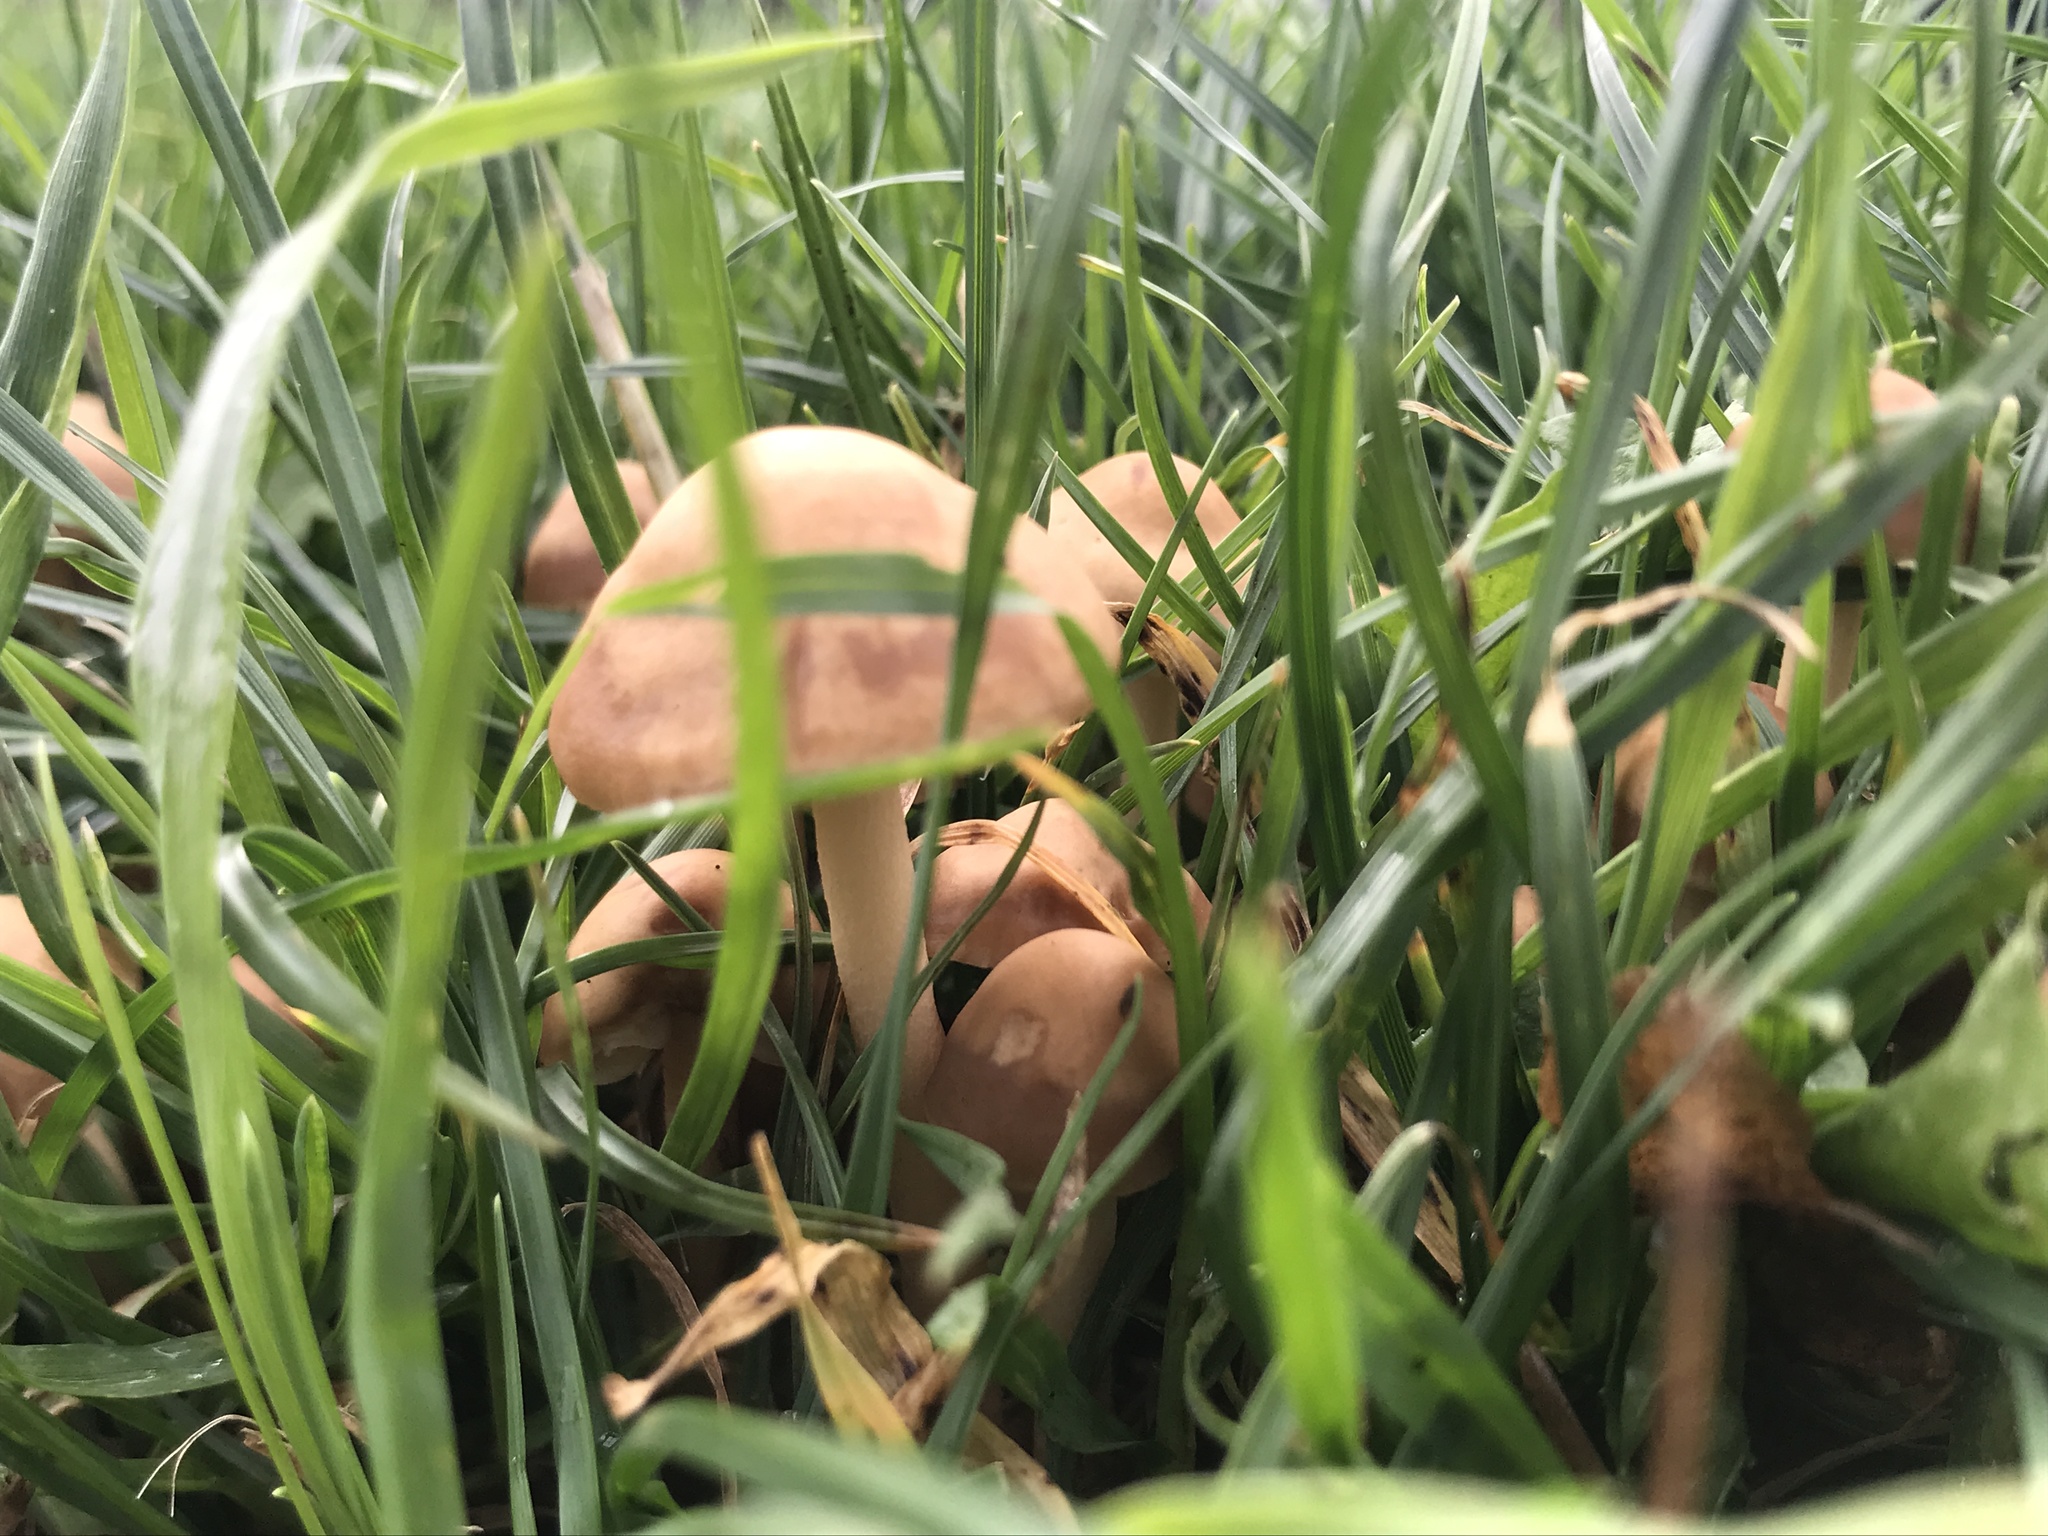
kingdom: Fungi
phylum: Basidiomycota
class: Agaricomycetes
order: Agaricales
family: Marasmiaceae
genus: Marasmius
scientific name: Marasmius oreades
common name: Fairy ring champignon
